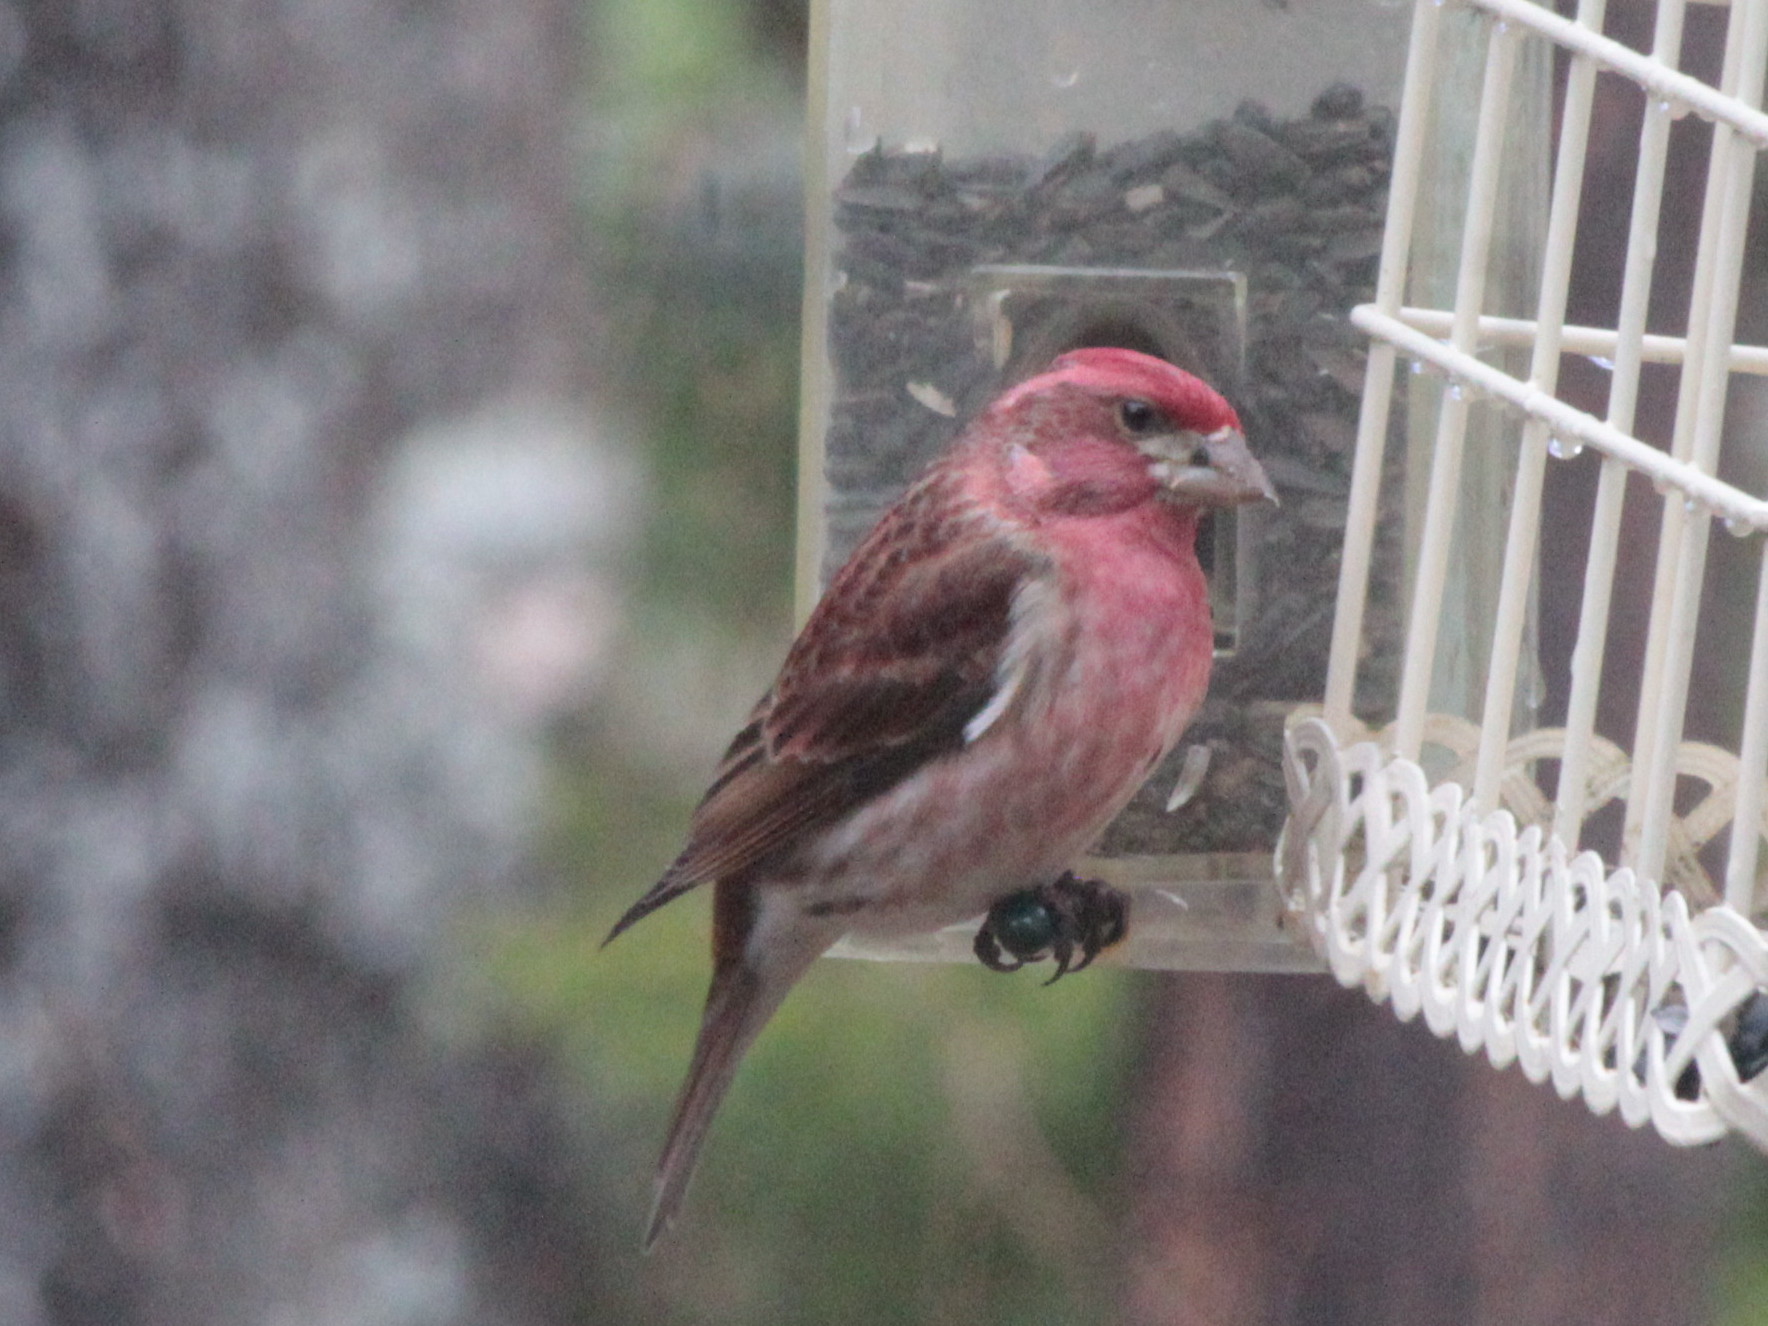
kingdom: Animalia
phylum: Chordata
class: Aves
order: Passeriformes
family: Fringillidae
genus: Haemorhous
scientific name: Haemorhous purpureus
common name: Purple finch
